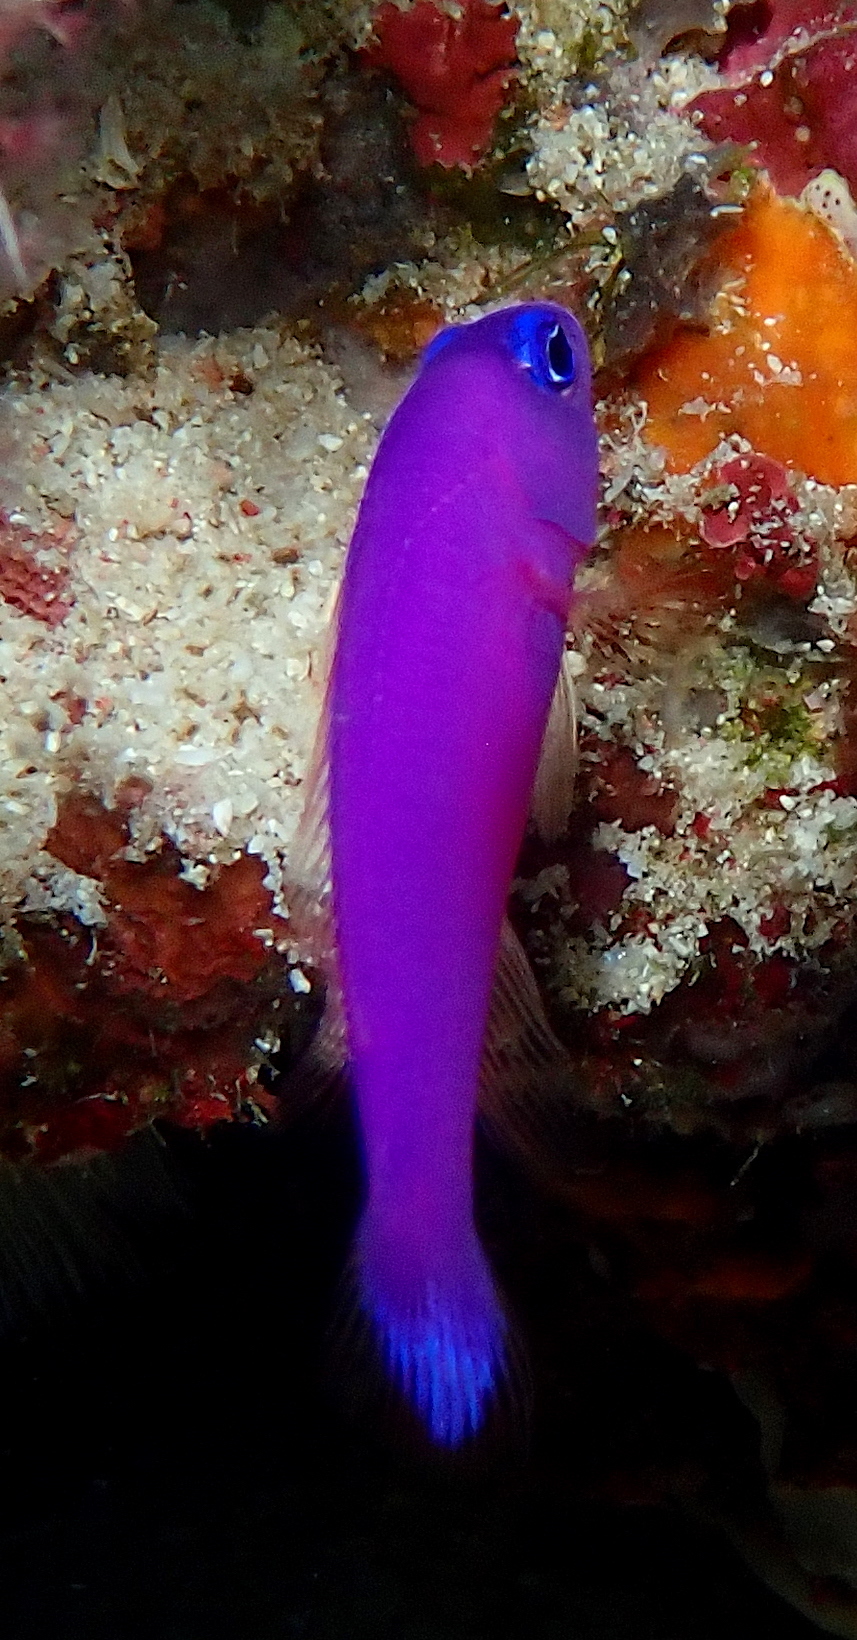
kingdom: Animalia
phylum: Chordata
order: Perciformes
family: Pseudochromidae
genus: Pictichromis
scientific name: Pictichromis porphyrea
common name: Magenta dottyback
